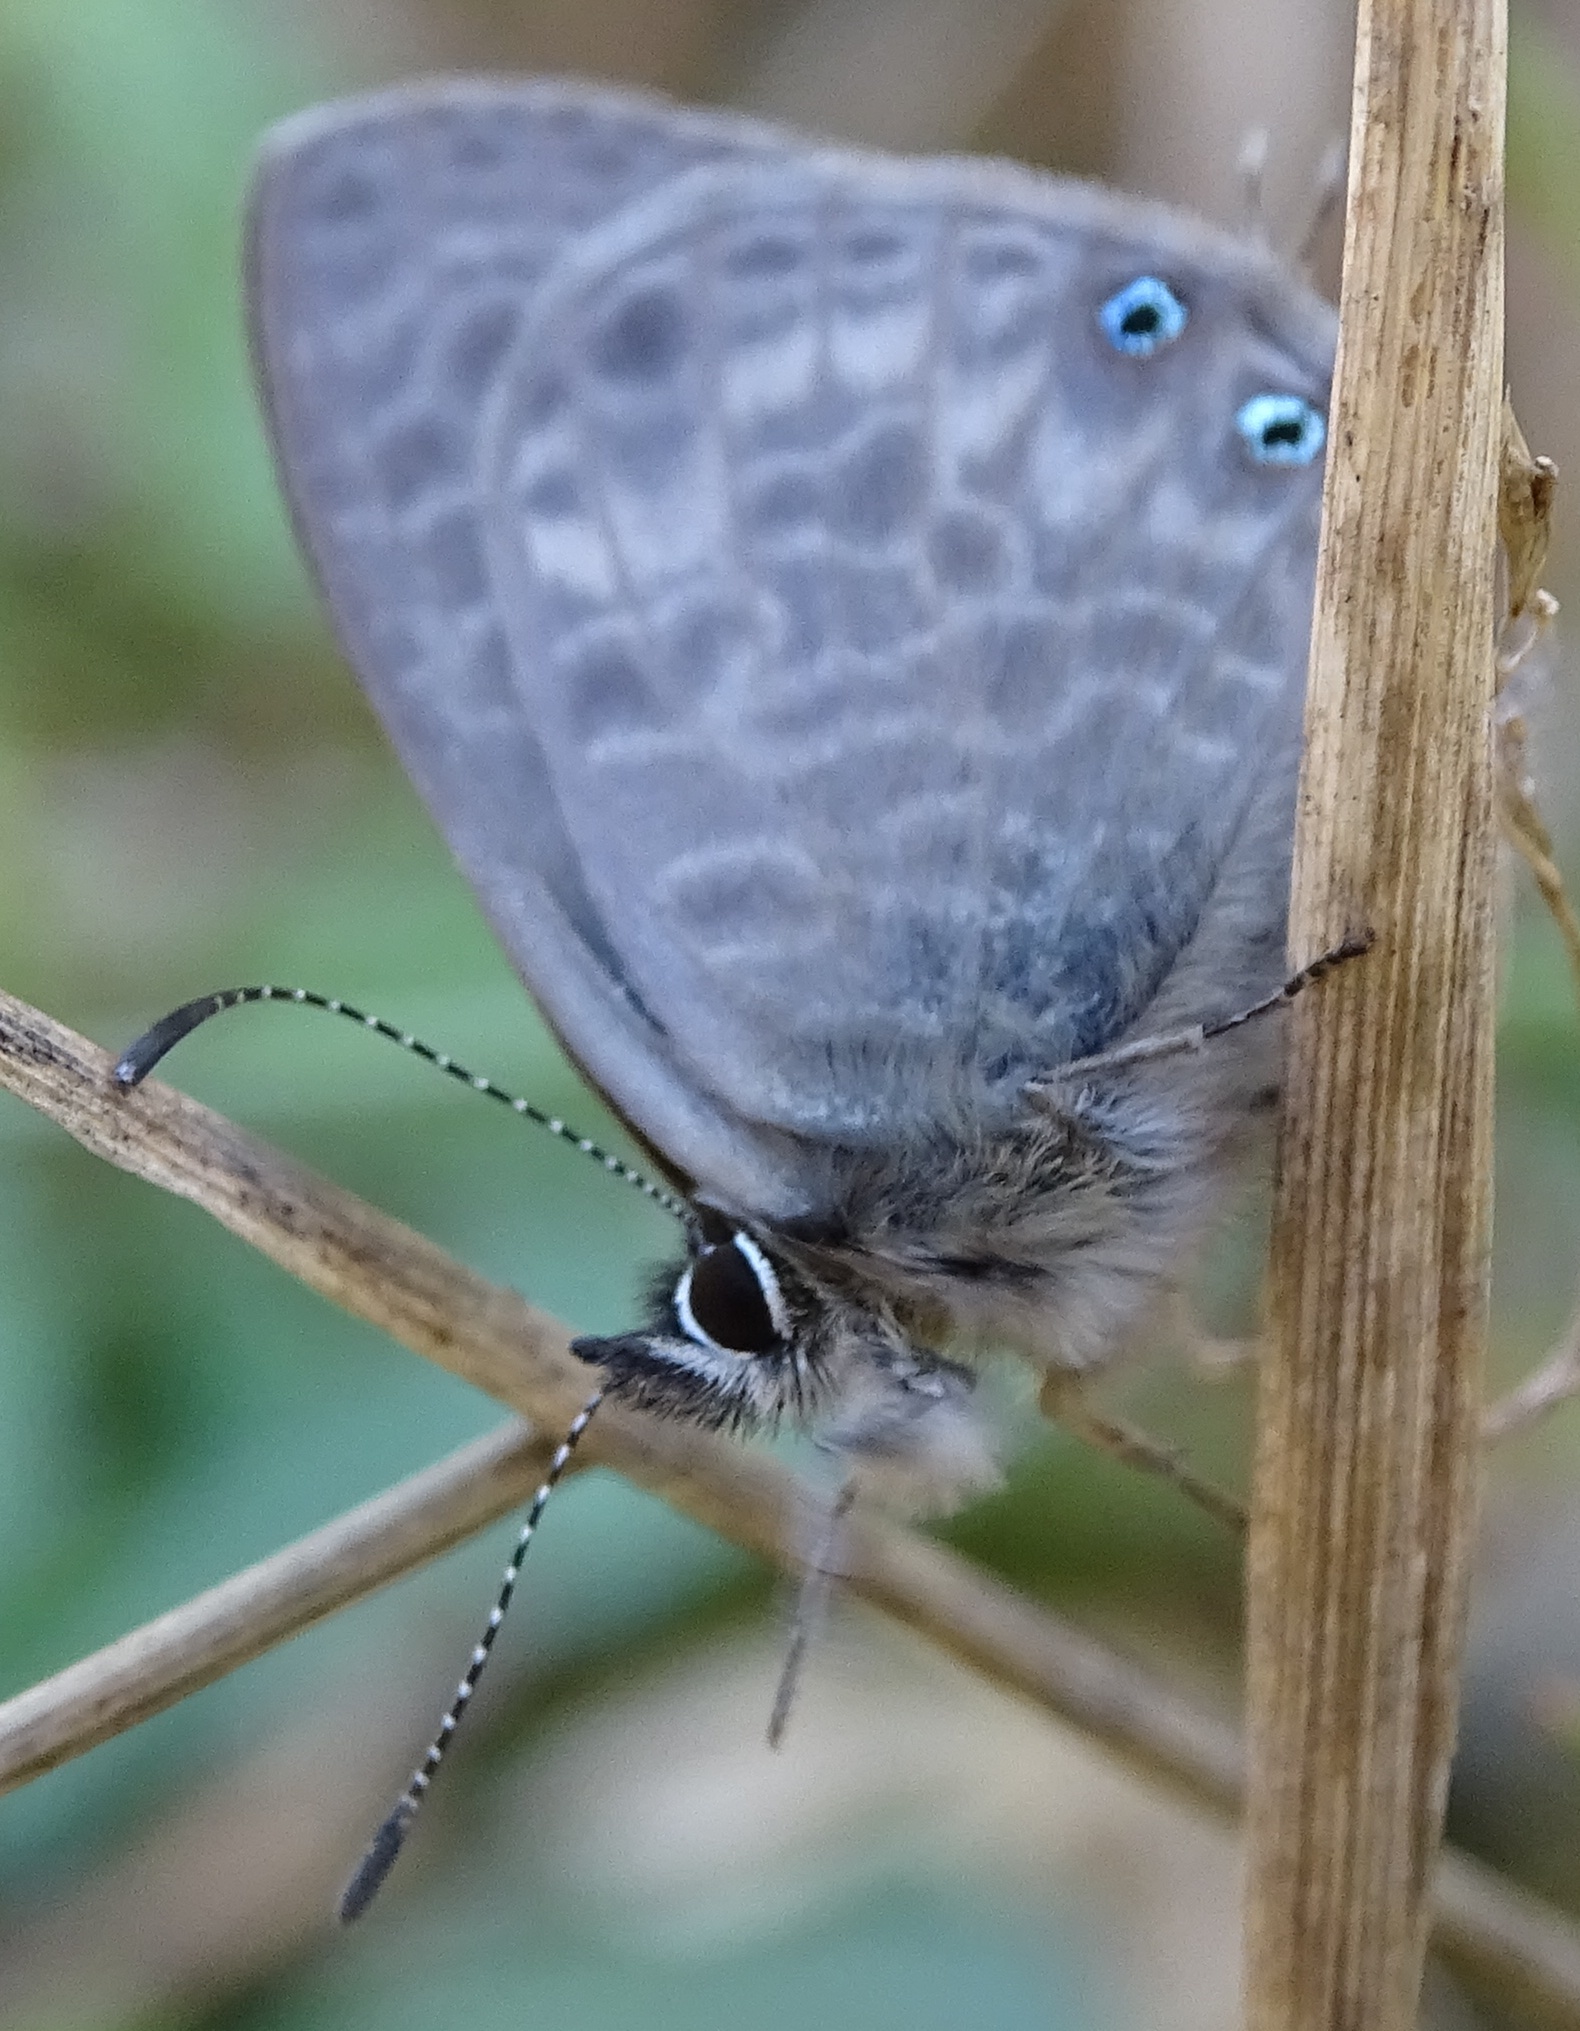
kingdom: Animalia
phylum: Arthropoda
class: Insecta
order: Lepidoptera
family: Lycaenidae
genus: Leptotes
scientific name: Leptotes pirithous
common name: Lang's short-tailed blue
